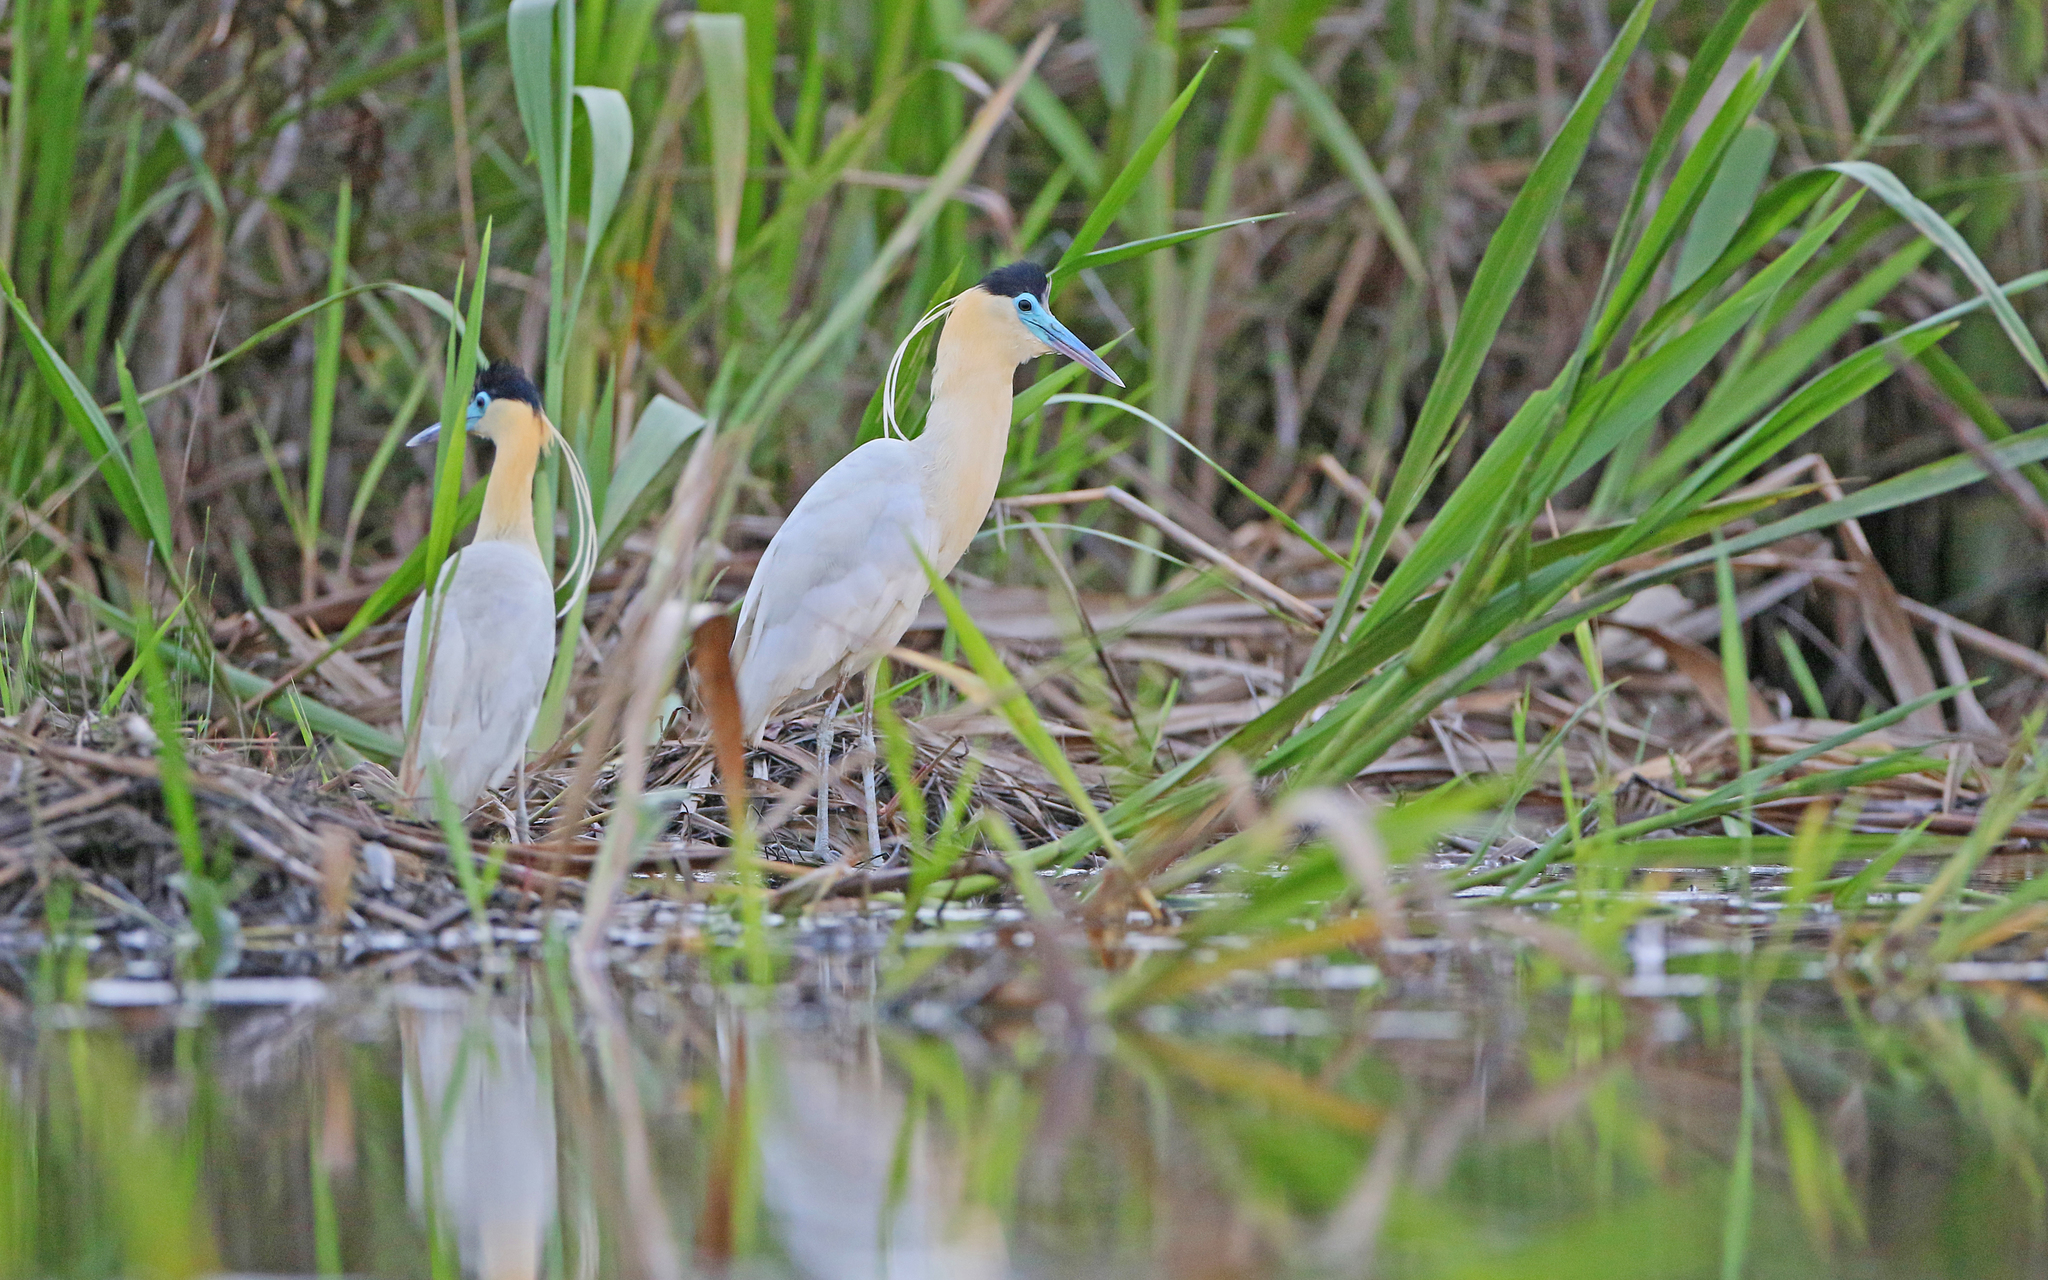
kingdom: Animalia
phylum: Chordata
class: Aves
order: Pelecaniformes
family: Ardeidae
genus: Pilherodius
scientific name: Pilherodius pileatus
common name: Capped heron
